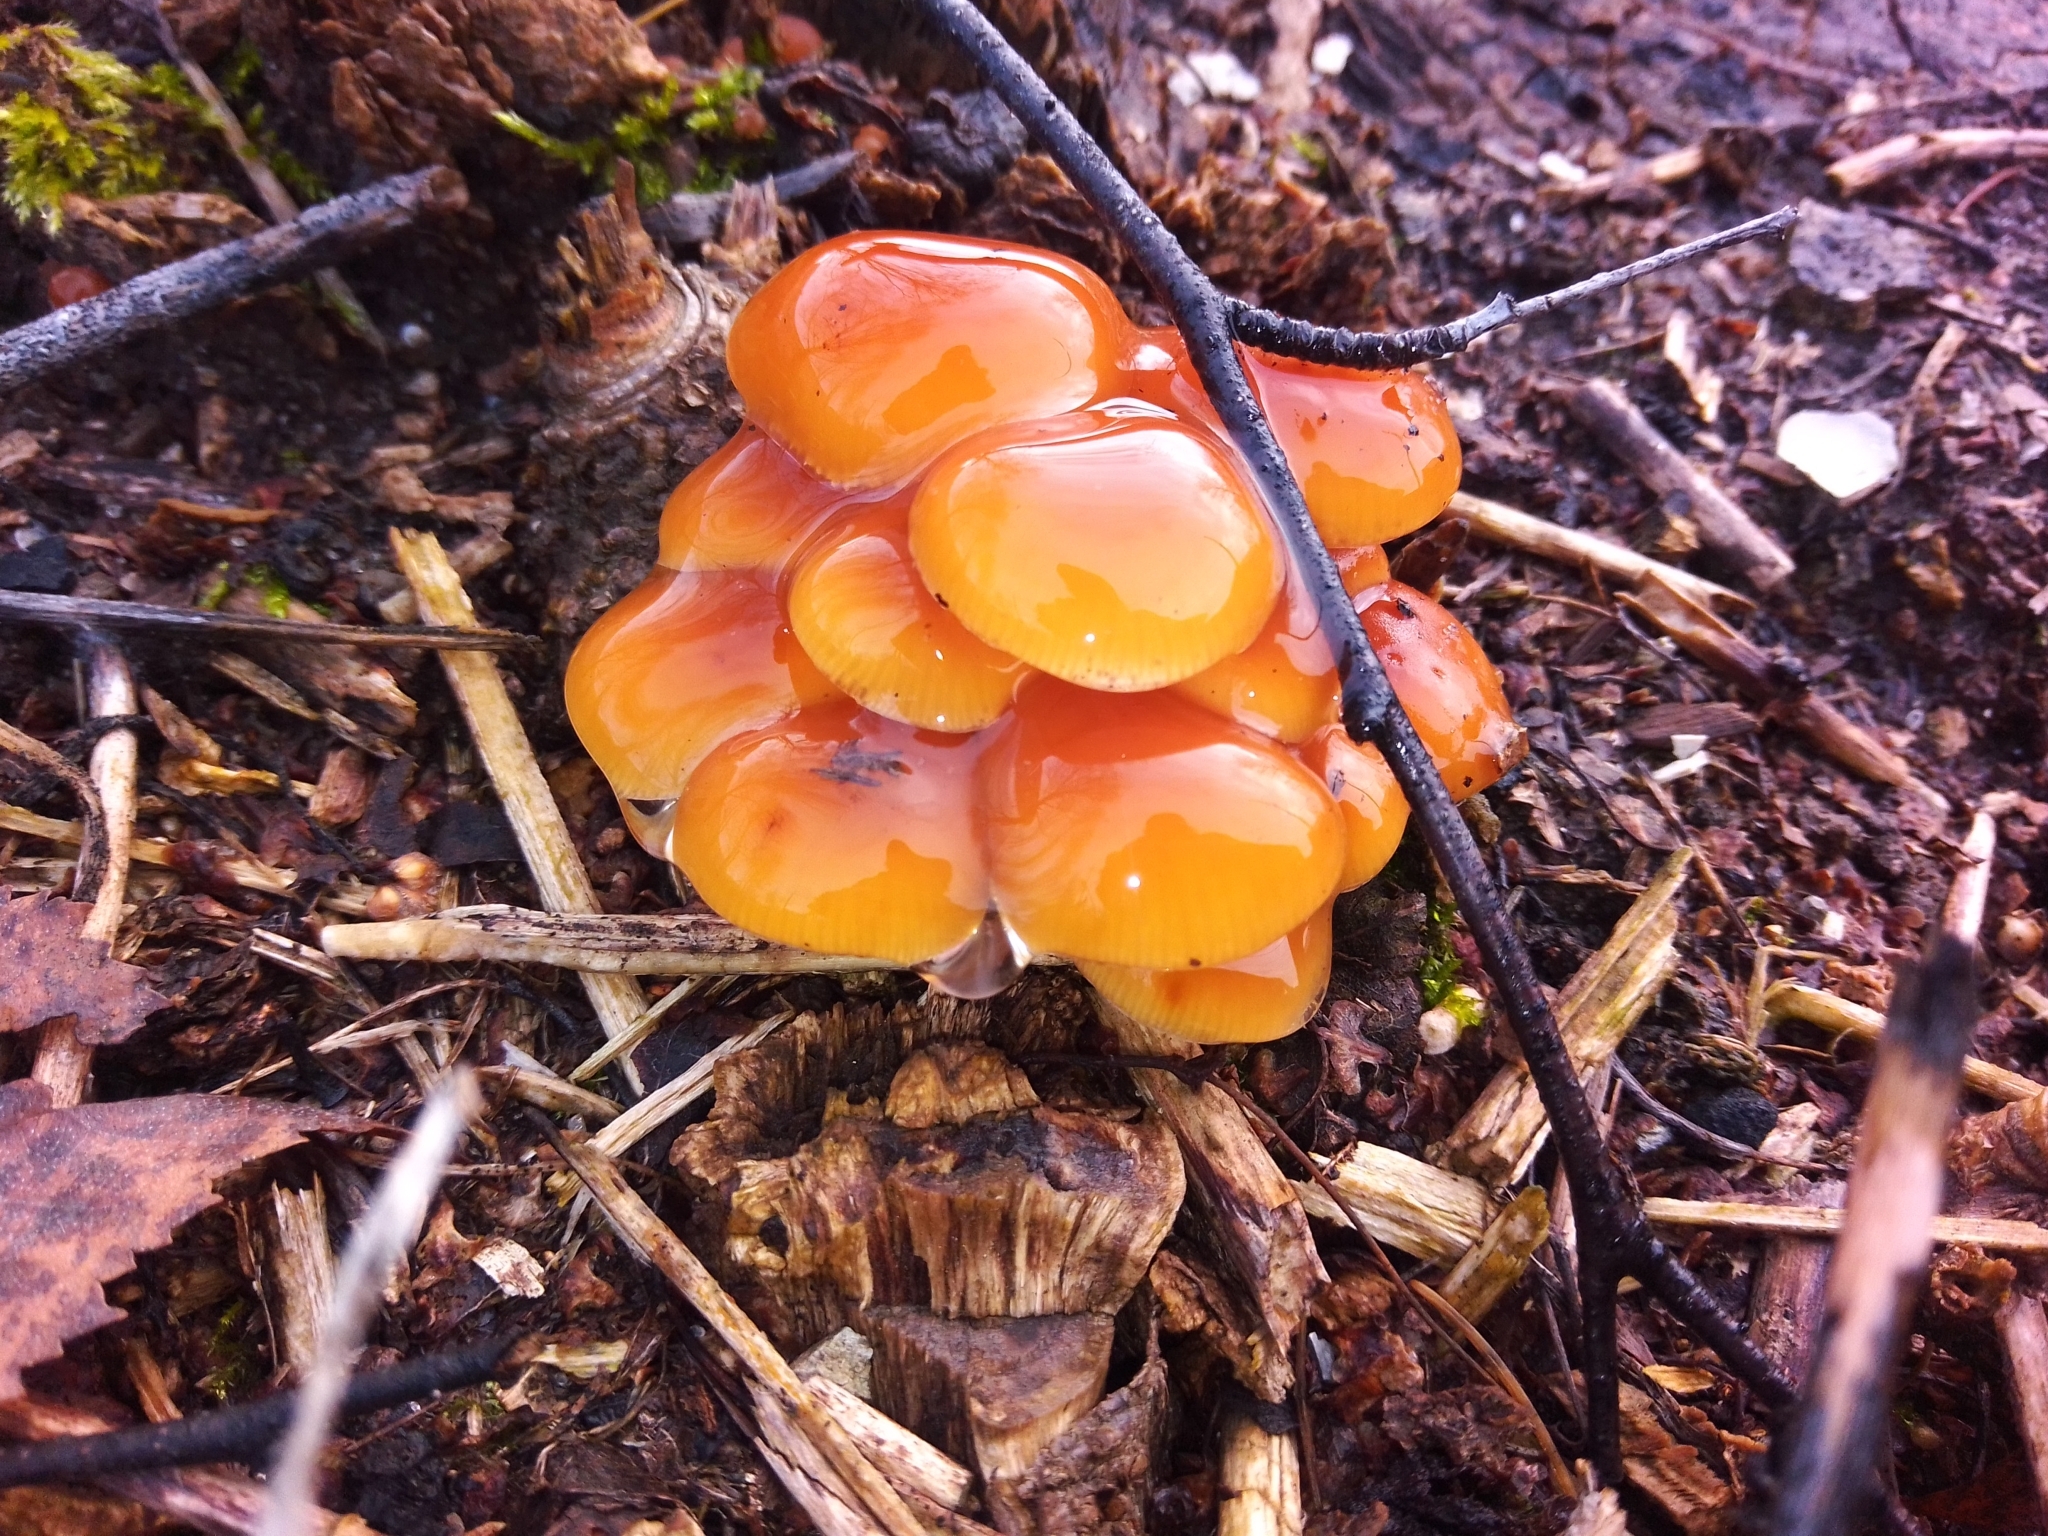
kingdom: Fungi
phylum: Basidiomycota
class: Agaricomycetes
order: Agaricales
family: Physalacriaceae
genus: Flammulina
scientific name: Flammulina
